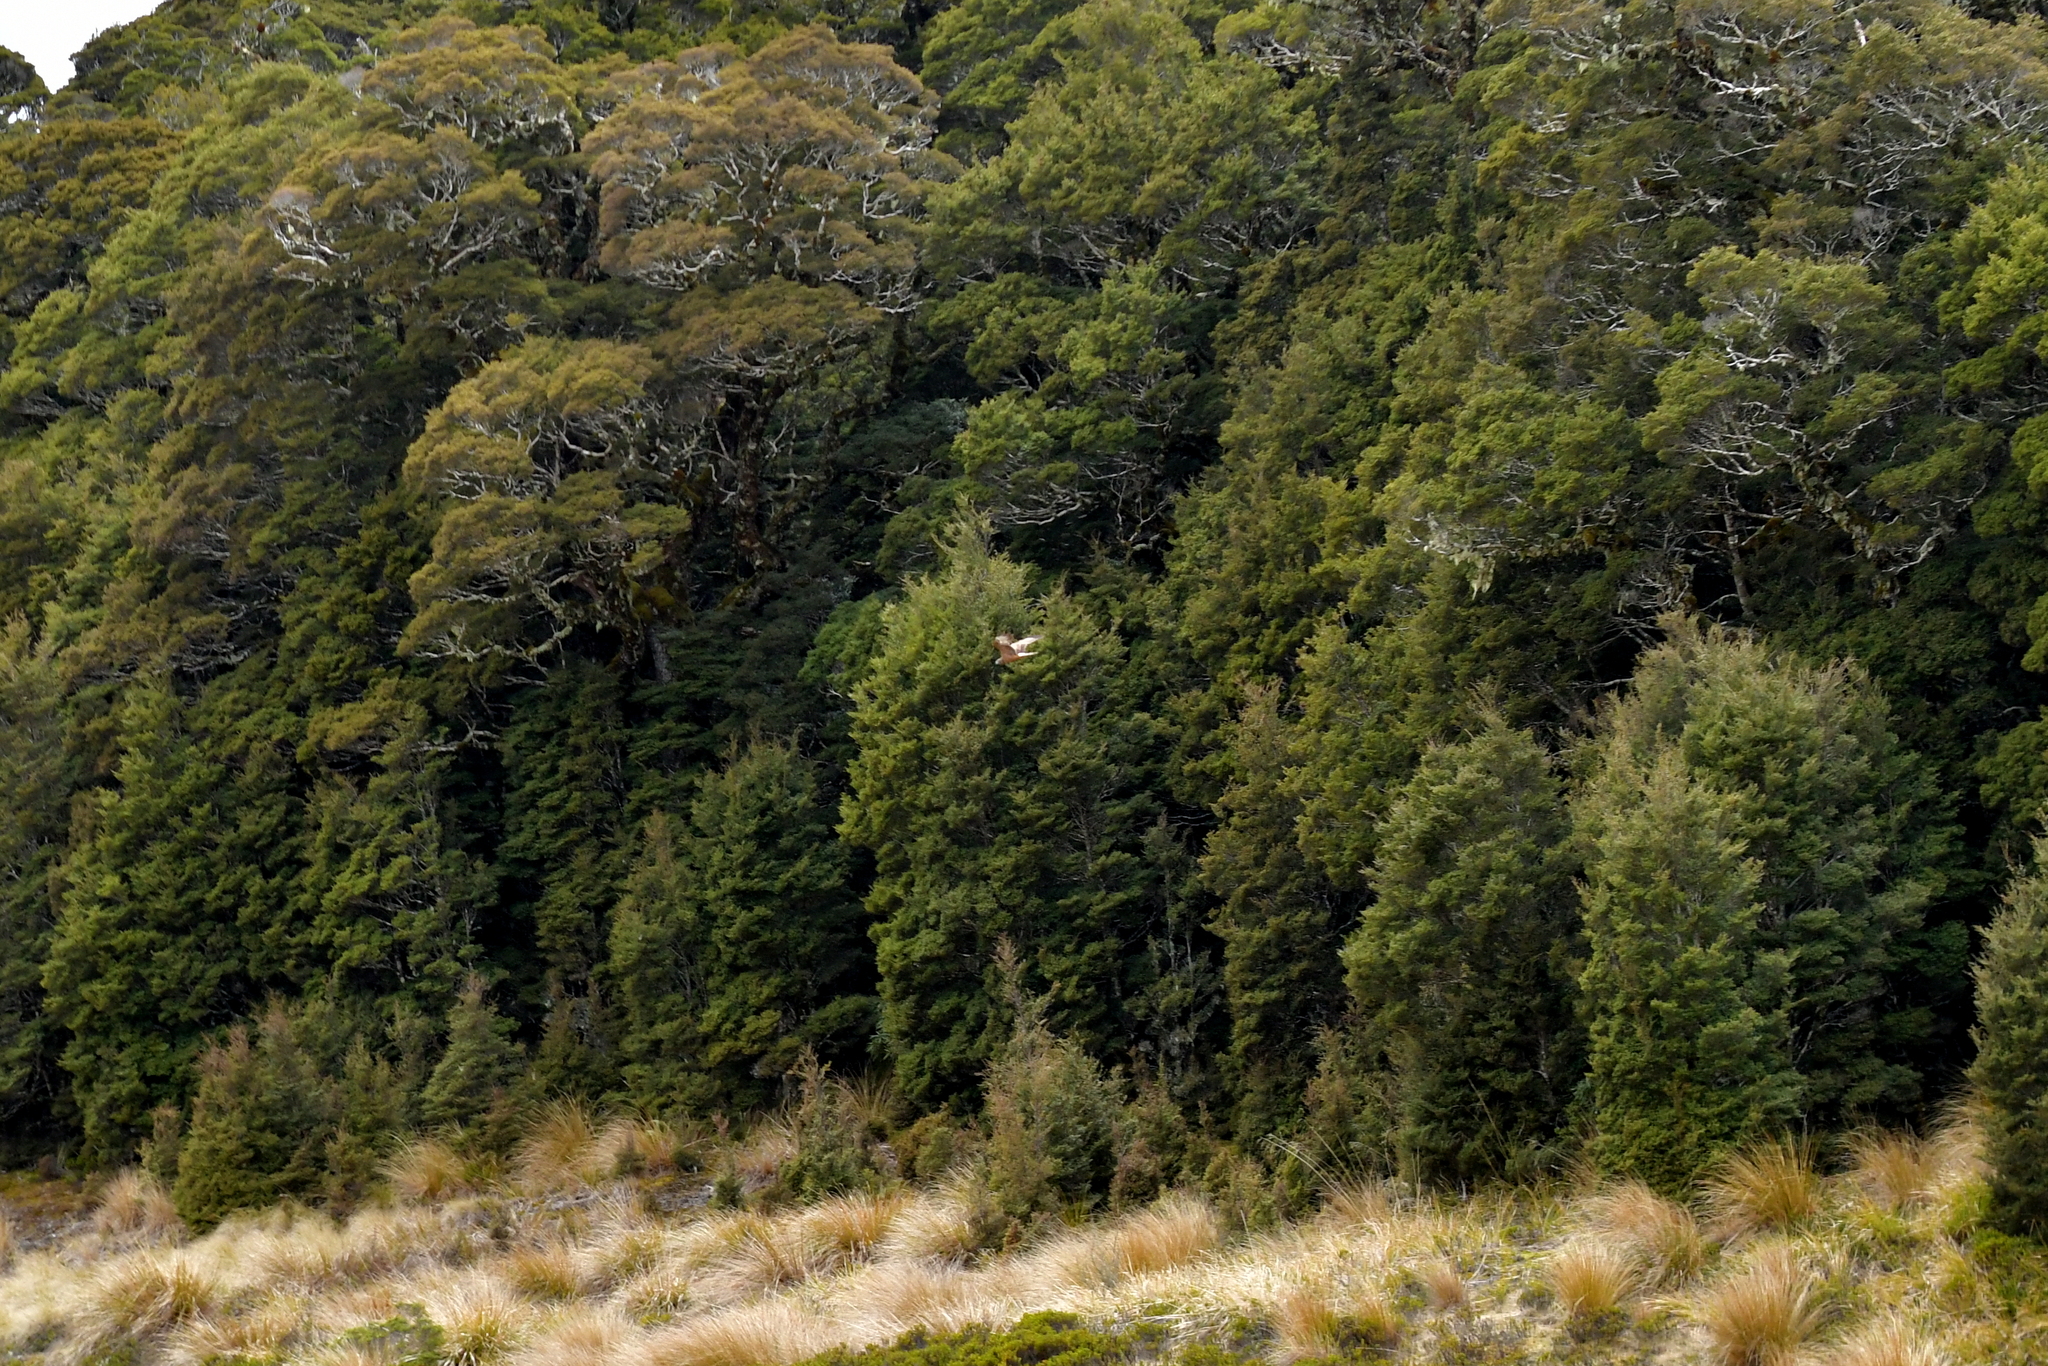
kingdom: Animalia
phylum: Chordata
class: Aves
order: Accipitriformes
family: Accipitridae
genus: Circus
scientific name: Circus approximans
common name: Swamp harrier
